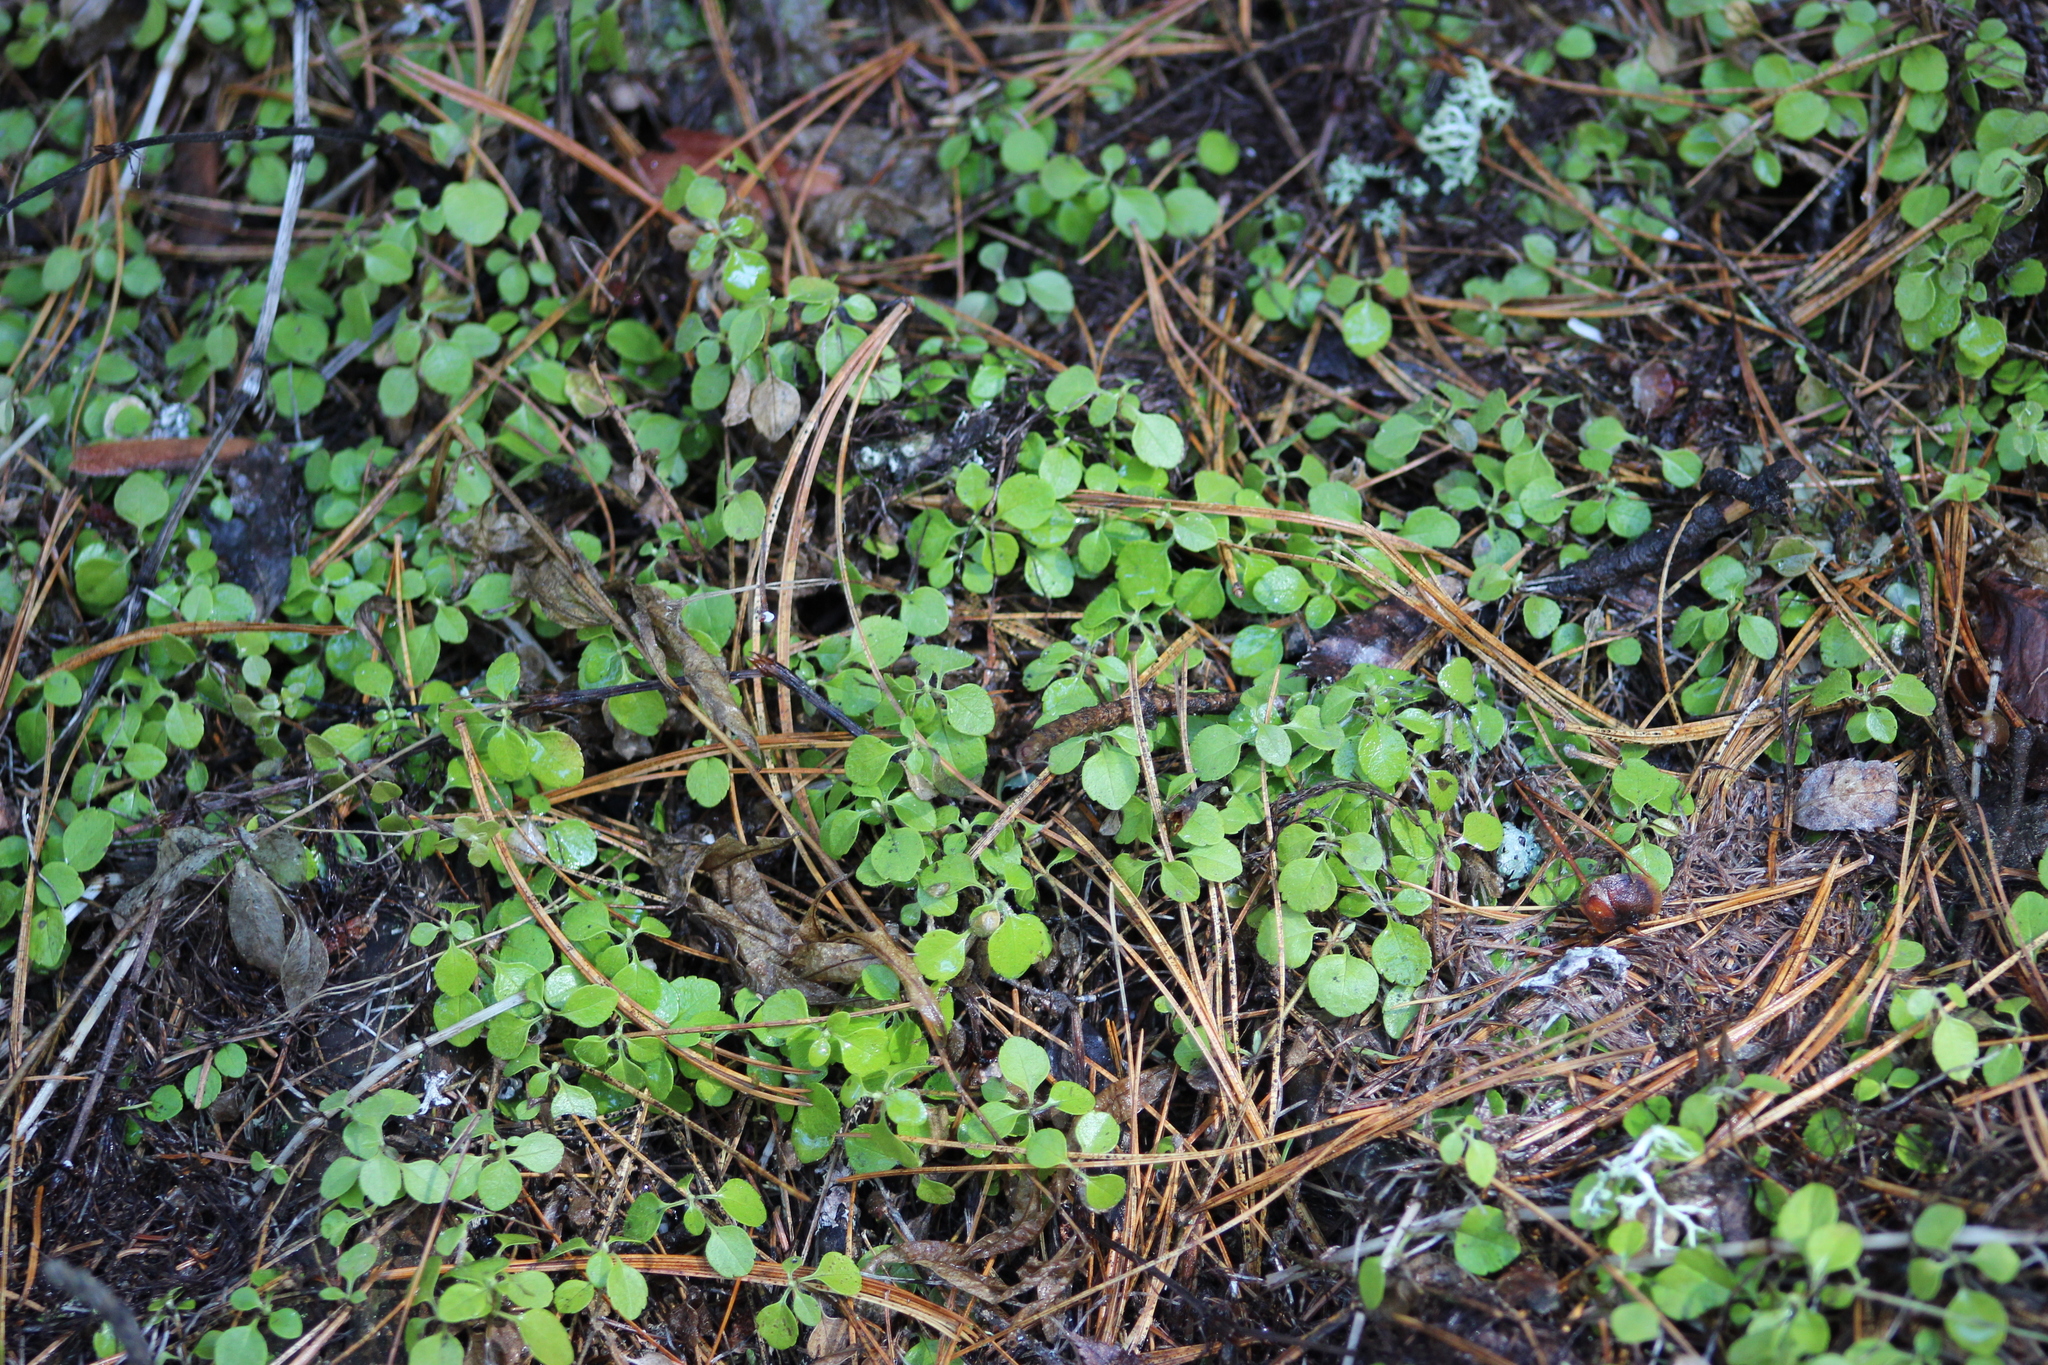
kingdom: Plantae
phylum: Tracheophyta
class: Magnoliopsida
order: Dipsacales
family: Caprifoliaceae
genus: Linnaea
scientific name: Linnaea borealis
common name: Twinflower
